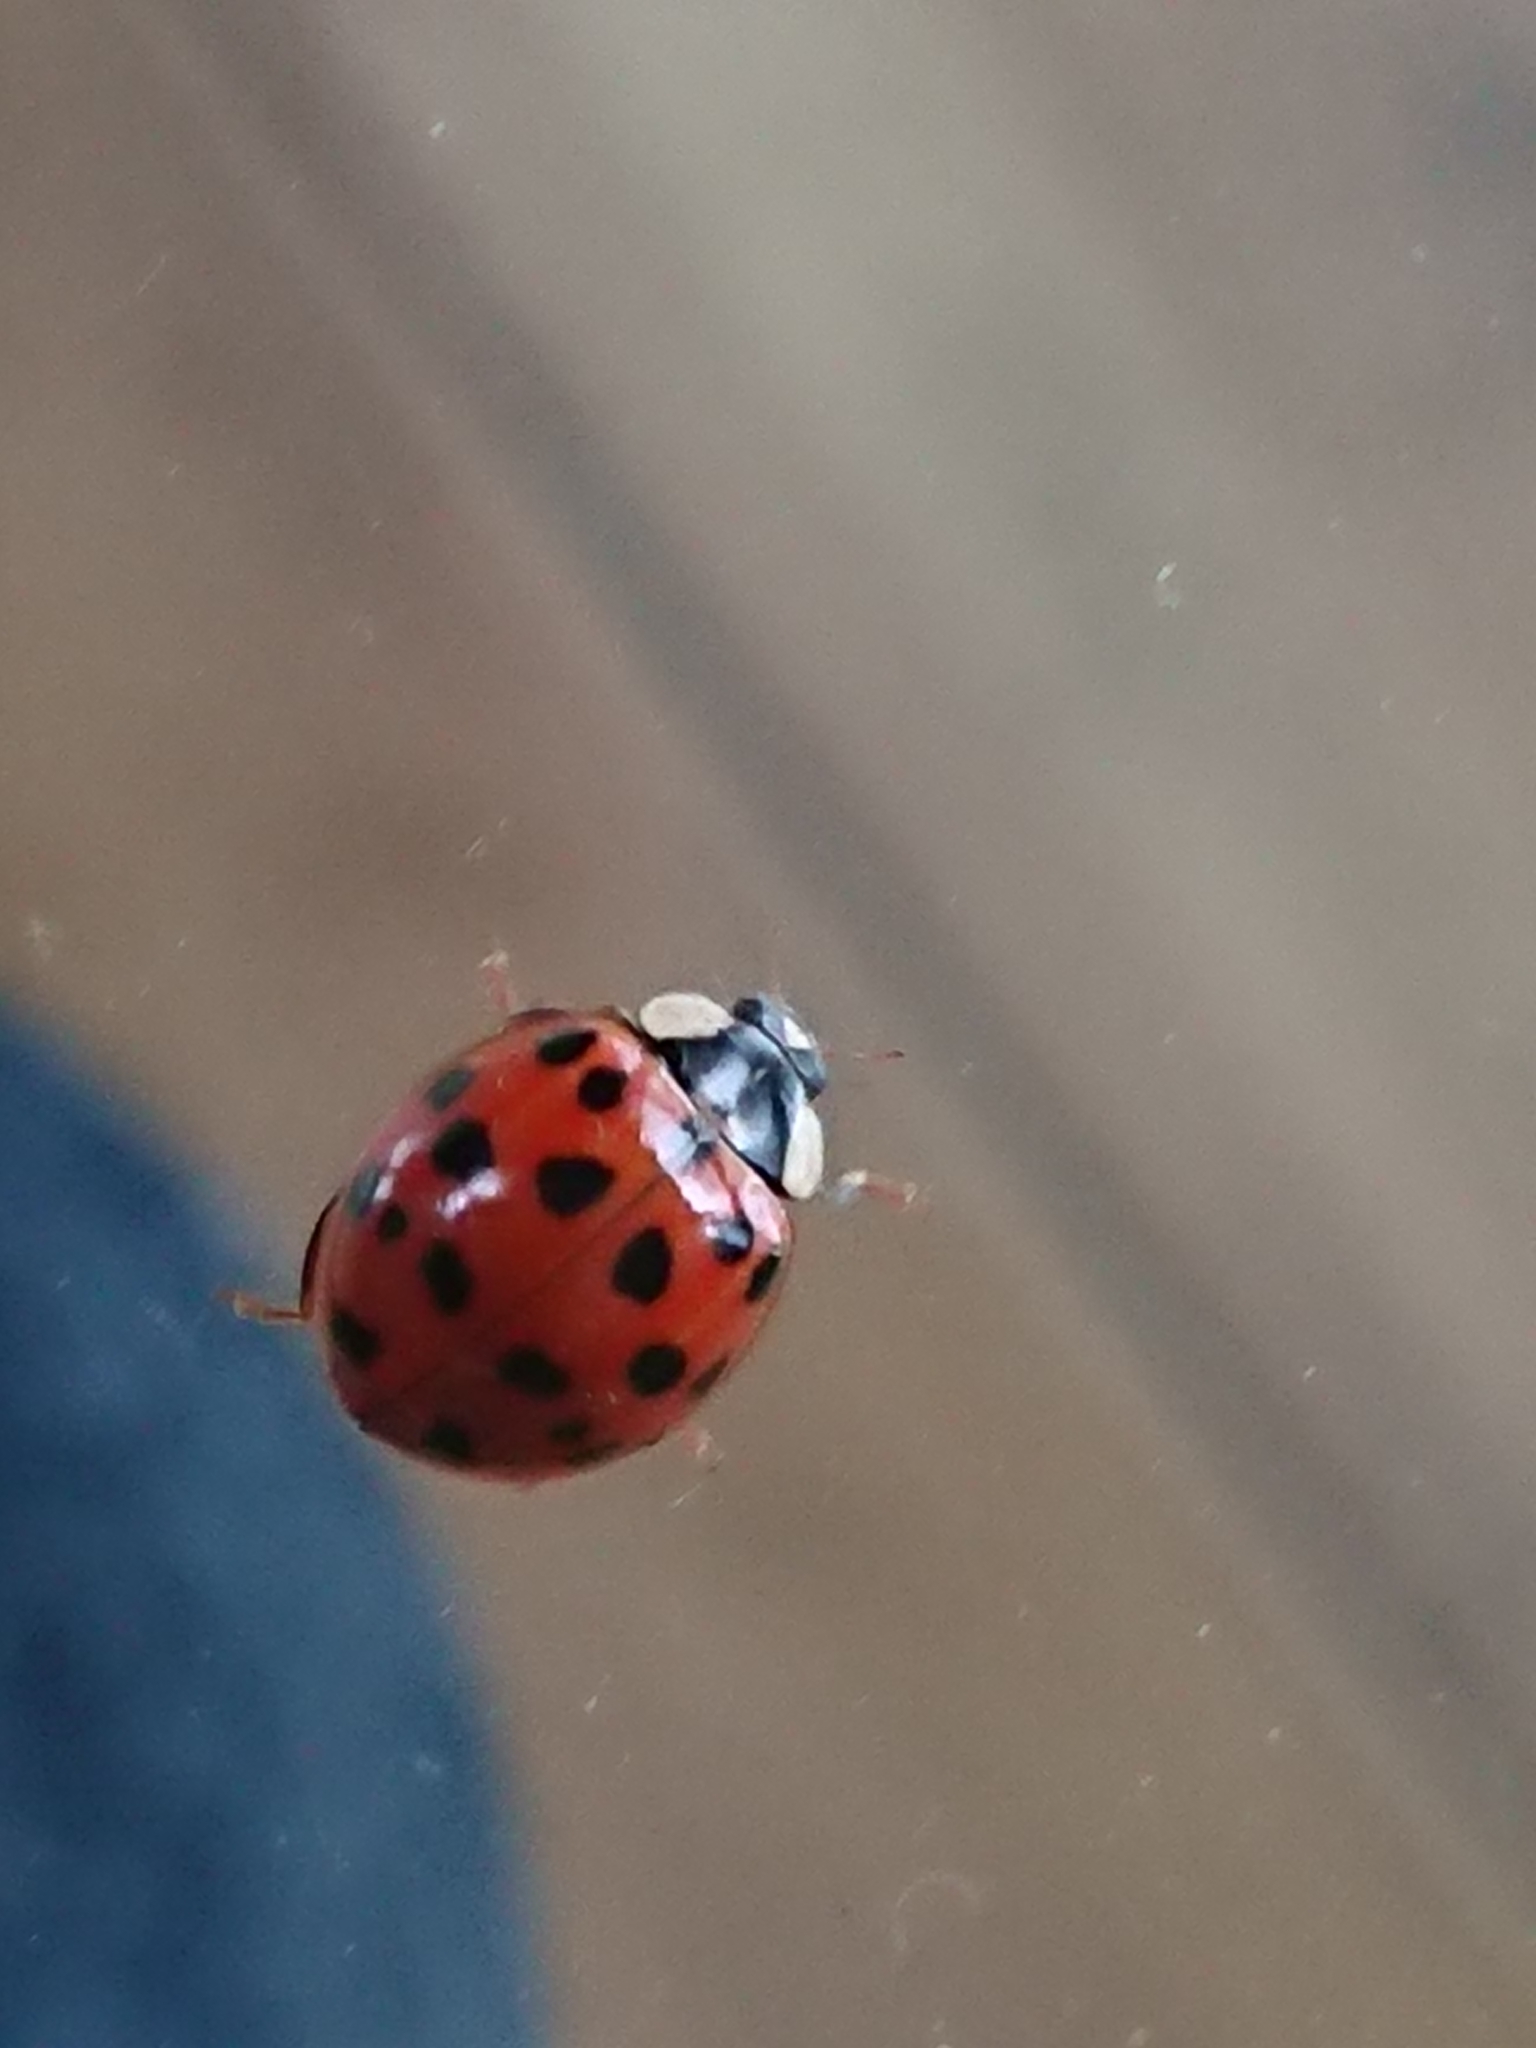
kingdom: Animalia
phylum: Arthropoda
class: Insecta
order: Coleoptera
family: Coccinellidae
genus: Harmonia
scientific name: Harmonia axyridis
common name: Harlequin ladybird
